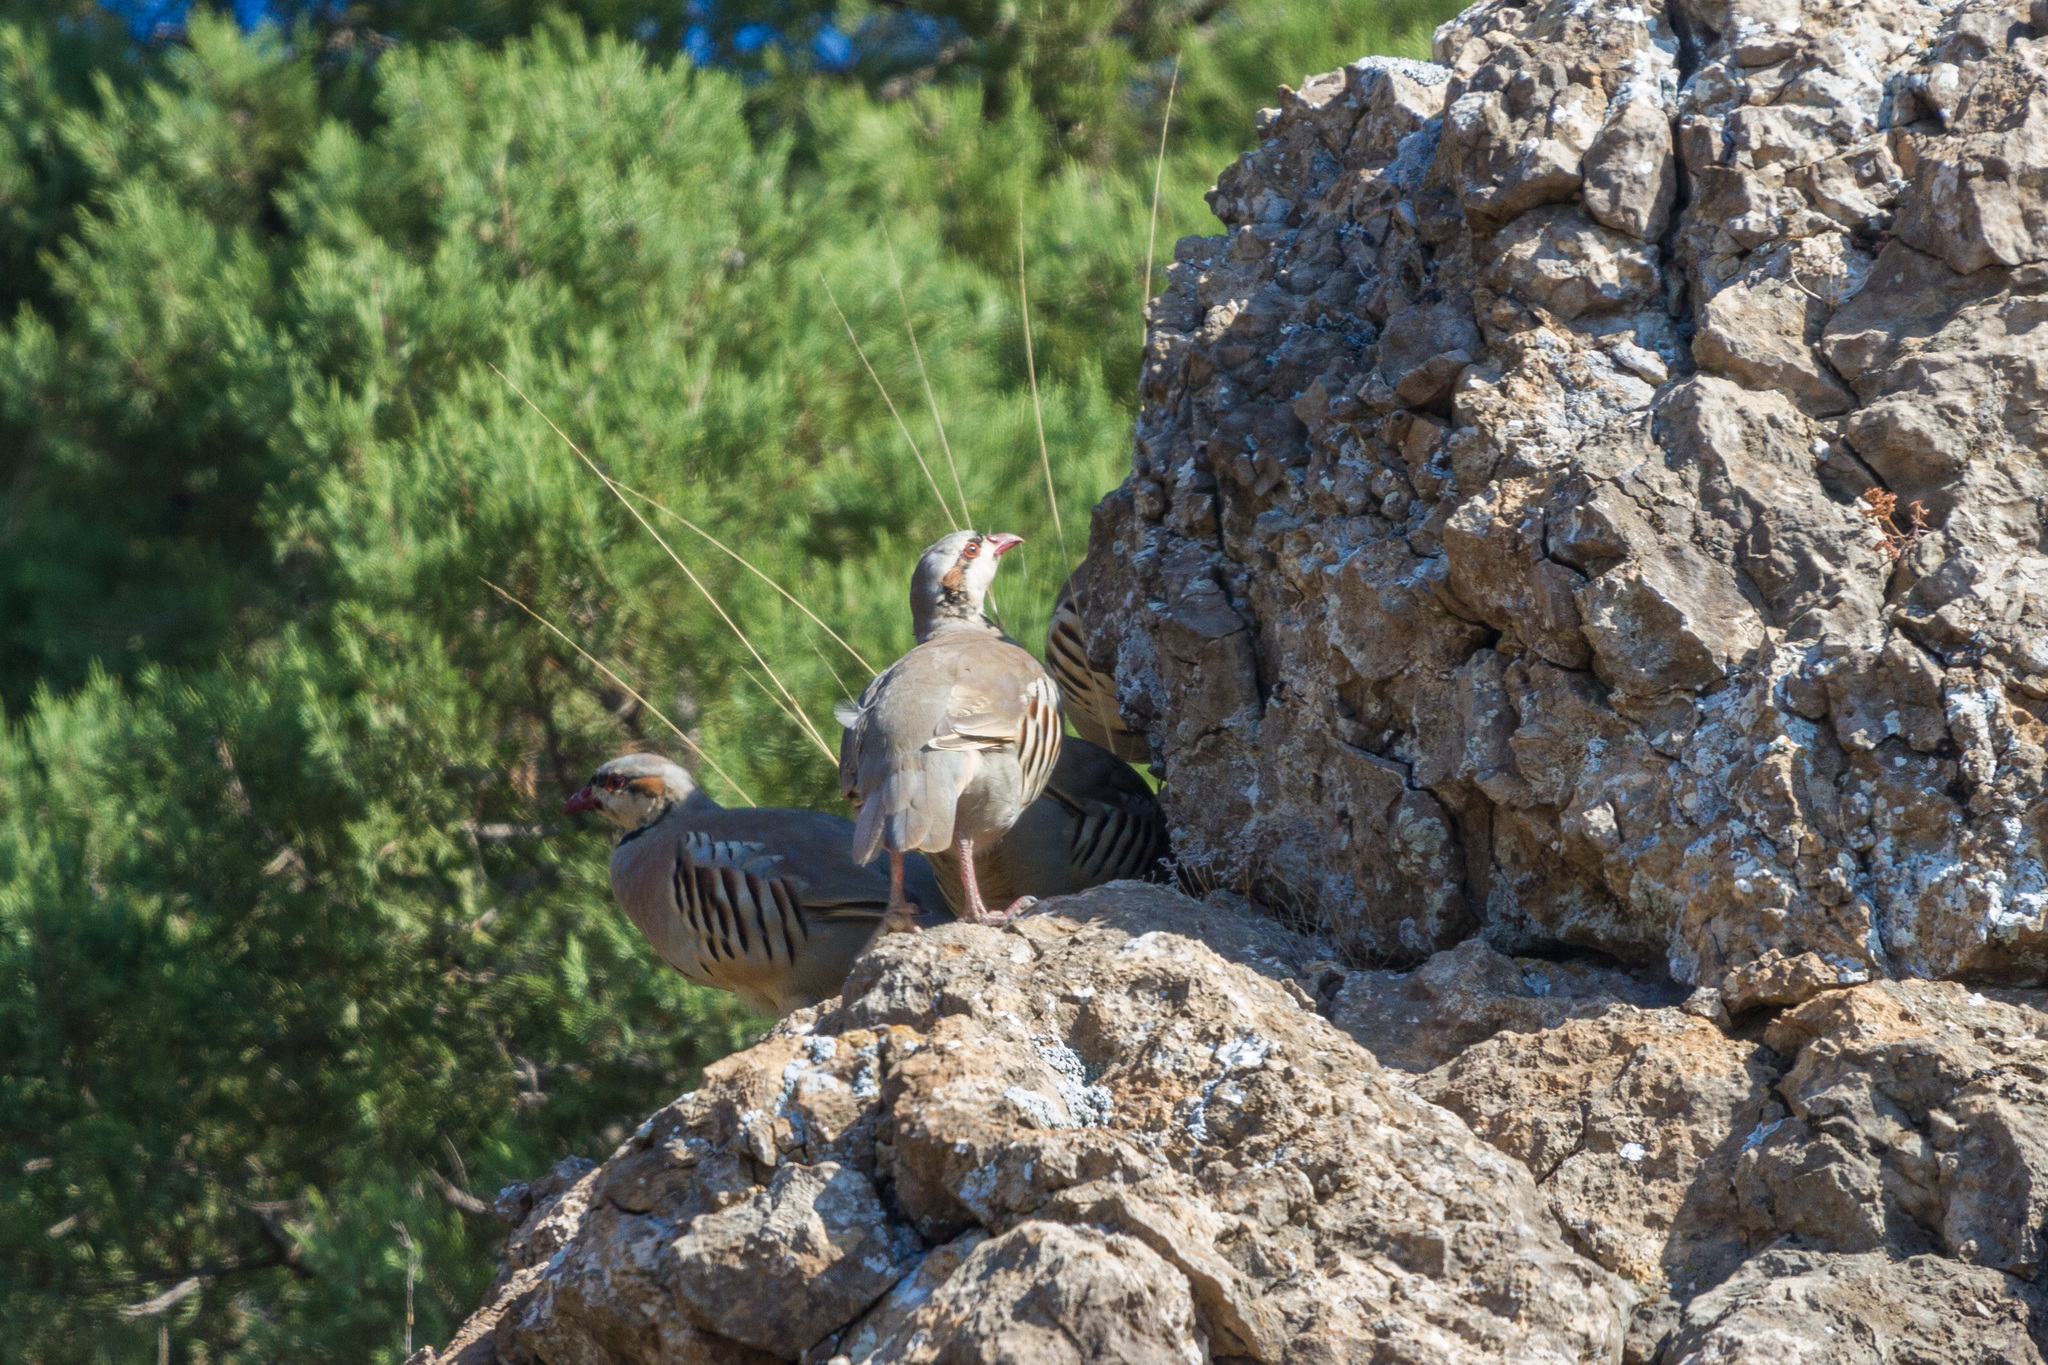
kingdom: Animalia
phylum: Chordata
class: Aves
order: Galliformes
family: Phasianidae
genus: Alectoris
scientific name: Alectoris chukar
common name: Chukar
